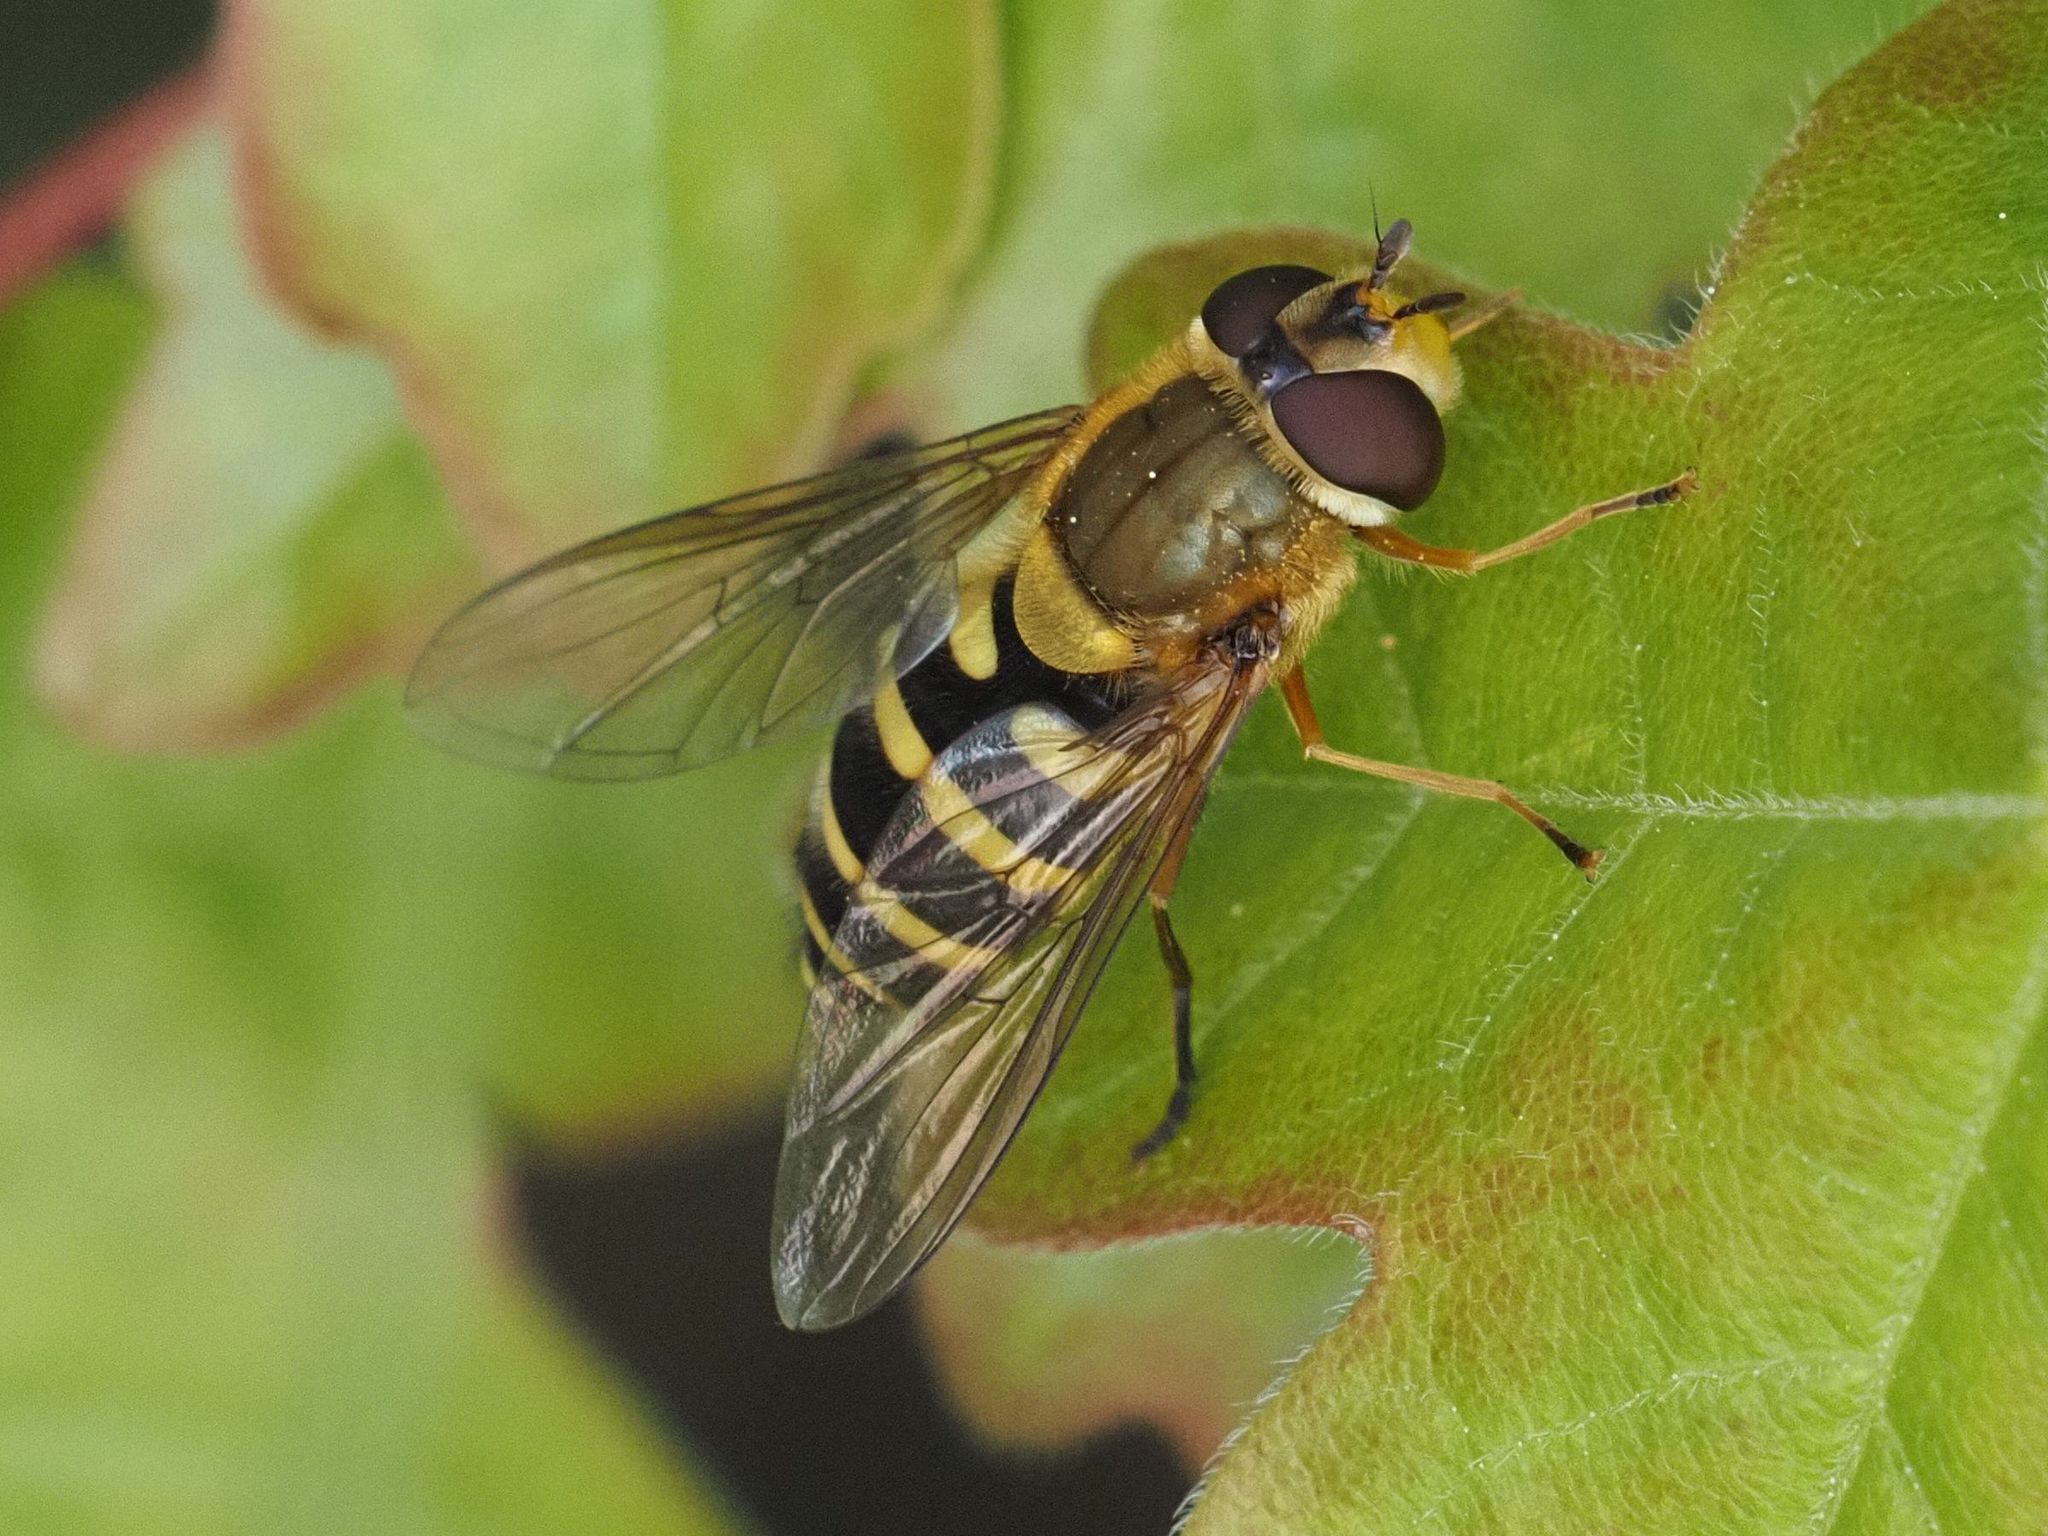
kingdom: Animalia
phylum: Arthropoda
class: Insecta
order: Diptera
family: Syrphidae
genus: Syrphus
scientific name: Syrphus
